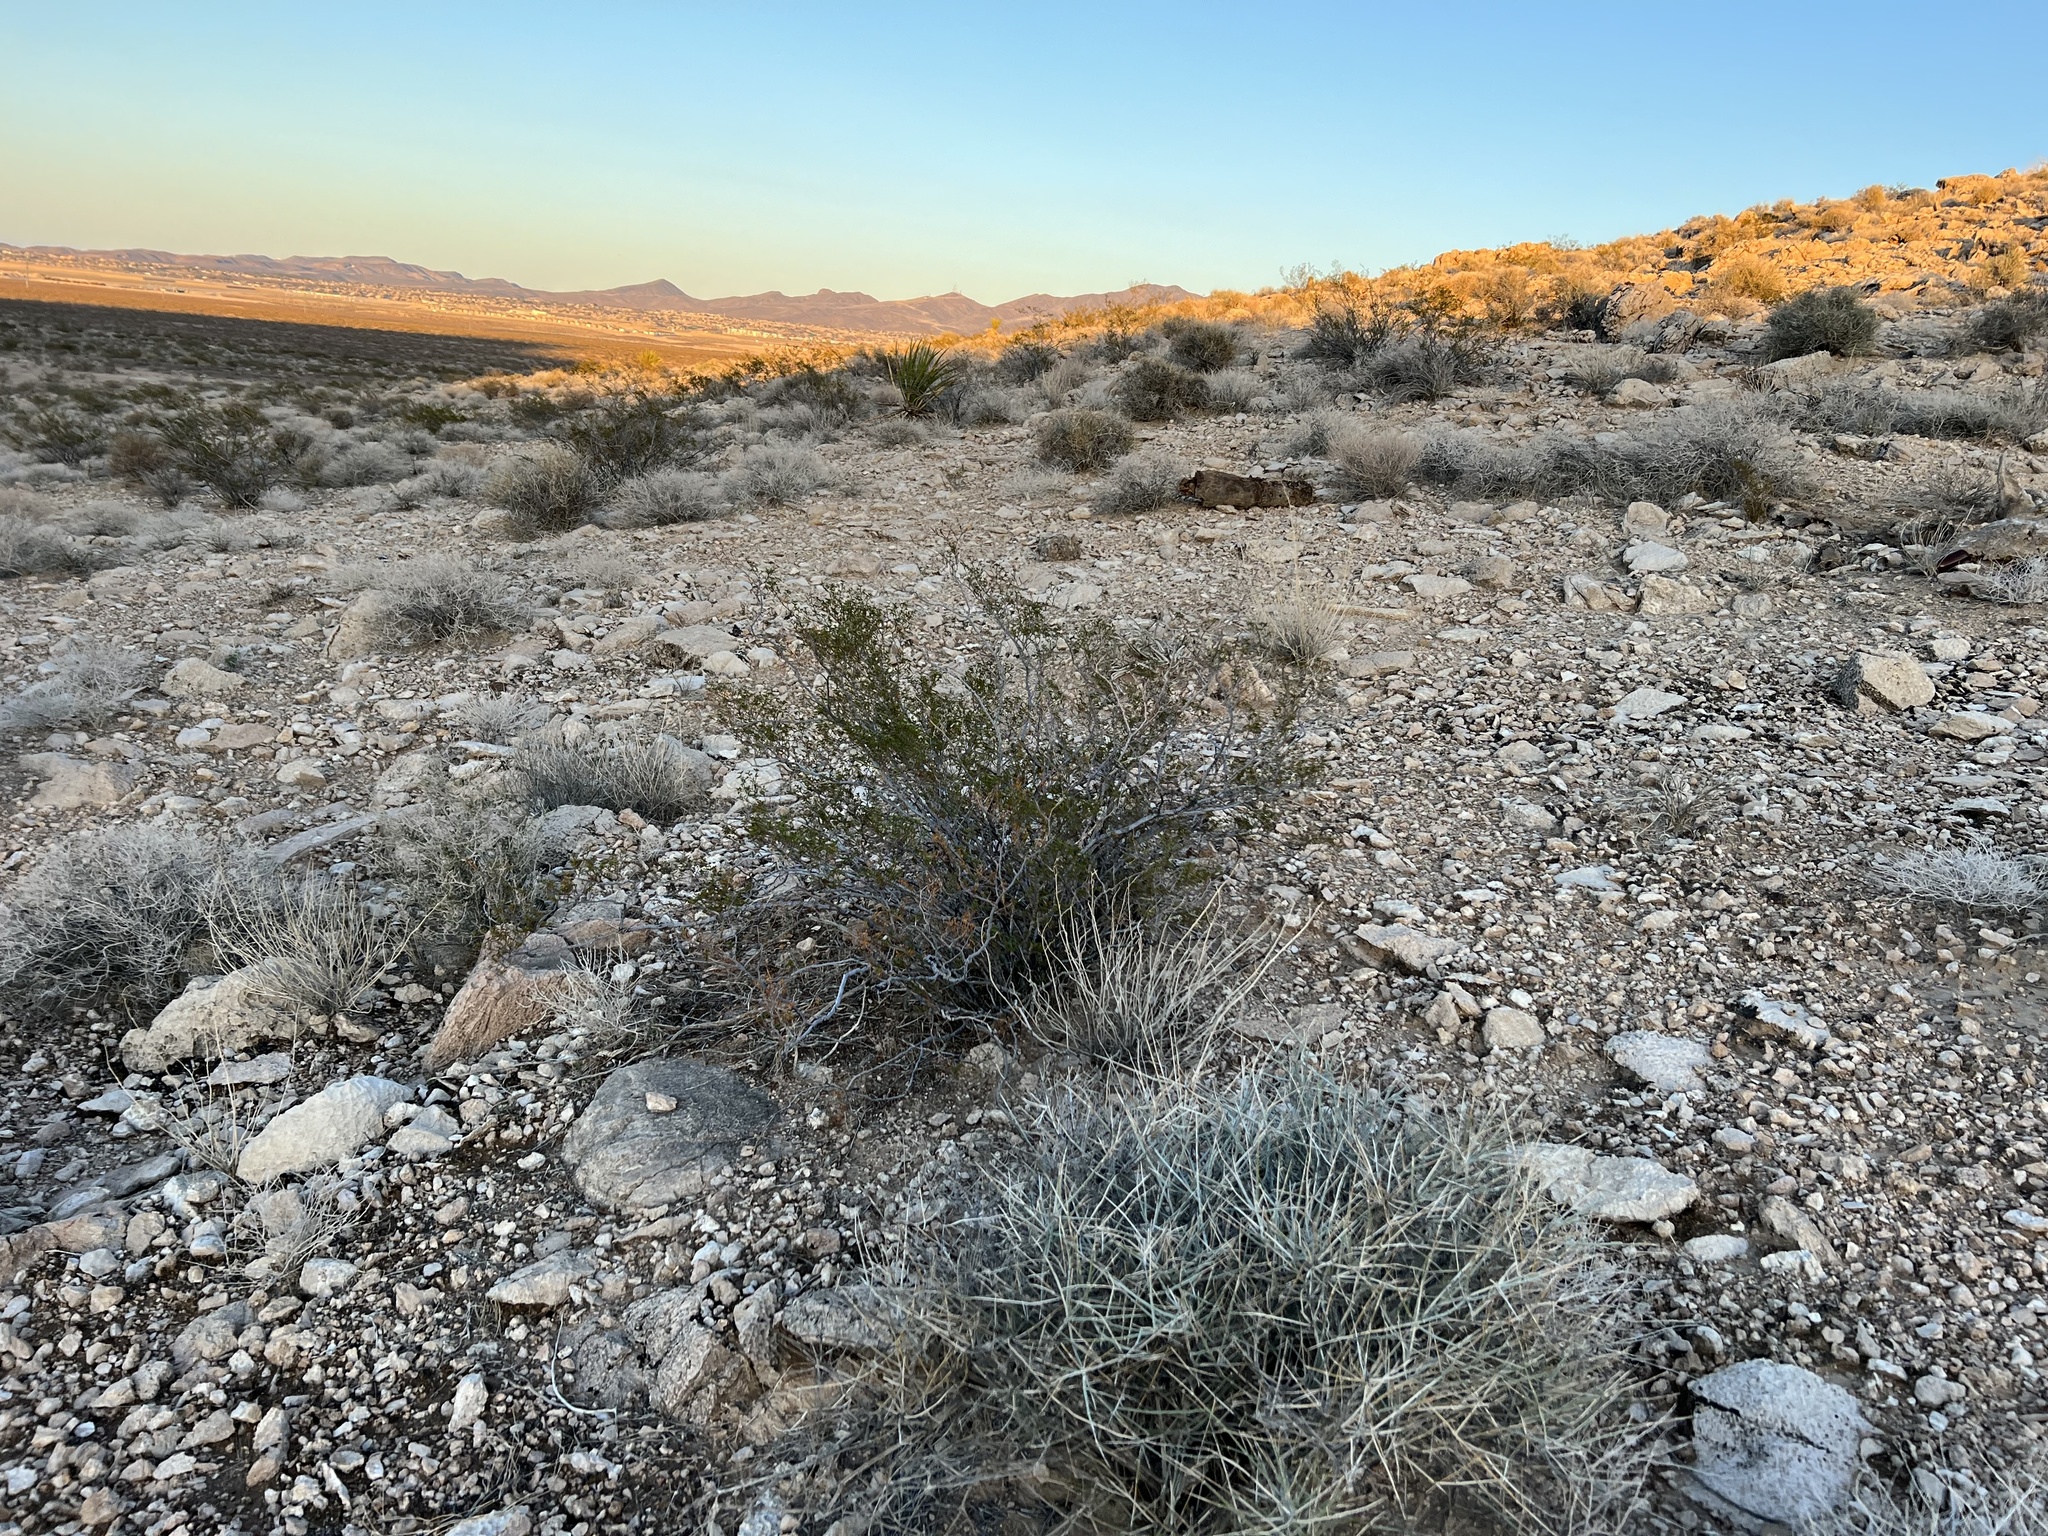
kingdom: Plantae
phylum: Tracheophyta
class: Magnoliopsida
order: Zygophyllales
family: Zygophyllaceae
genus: Larrea
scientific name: Larrea tridentata
